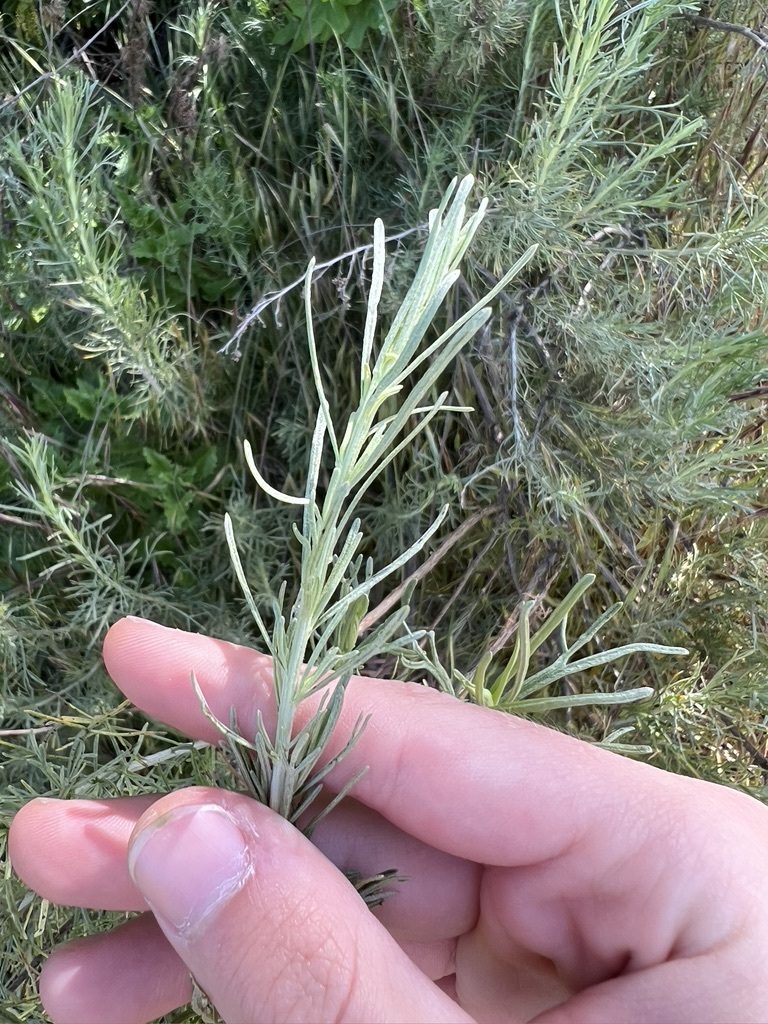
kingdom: Plantae
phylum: Tracheophyta
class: Magnoliopsida
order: Asterales
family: Asteraceae
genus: Artemisia
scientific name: Artemisia californica
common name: California sagebrush
